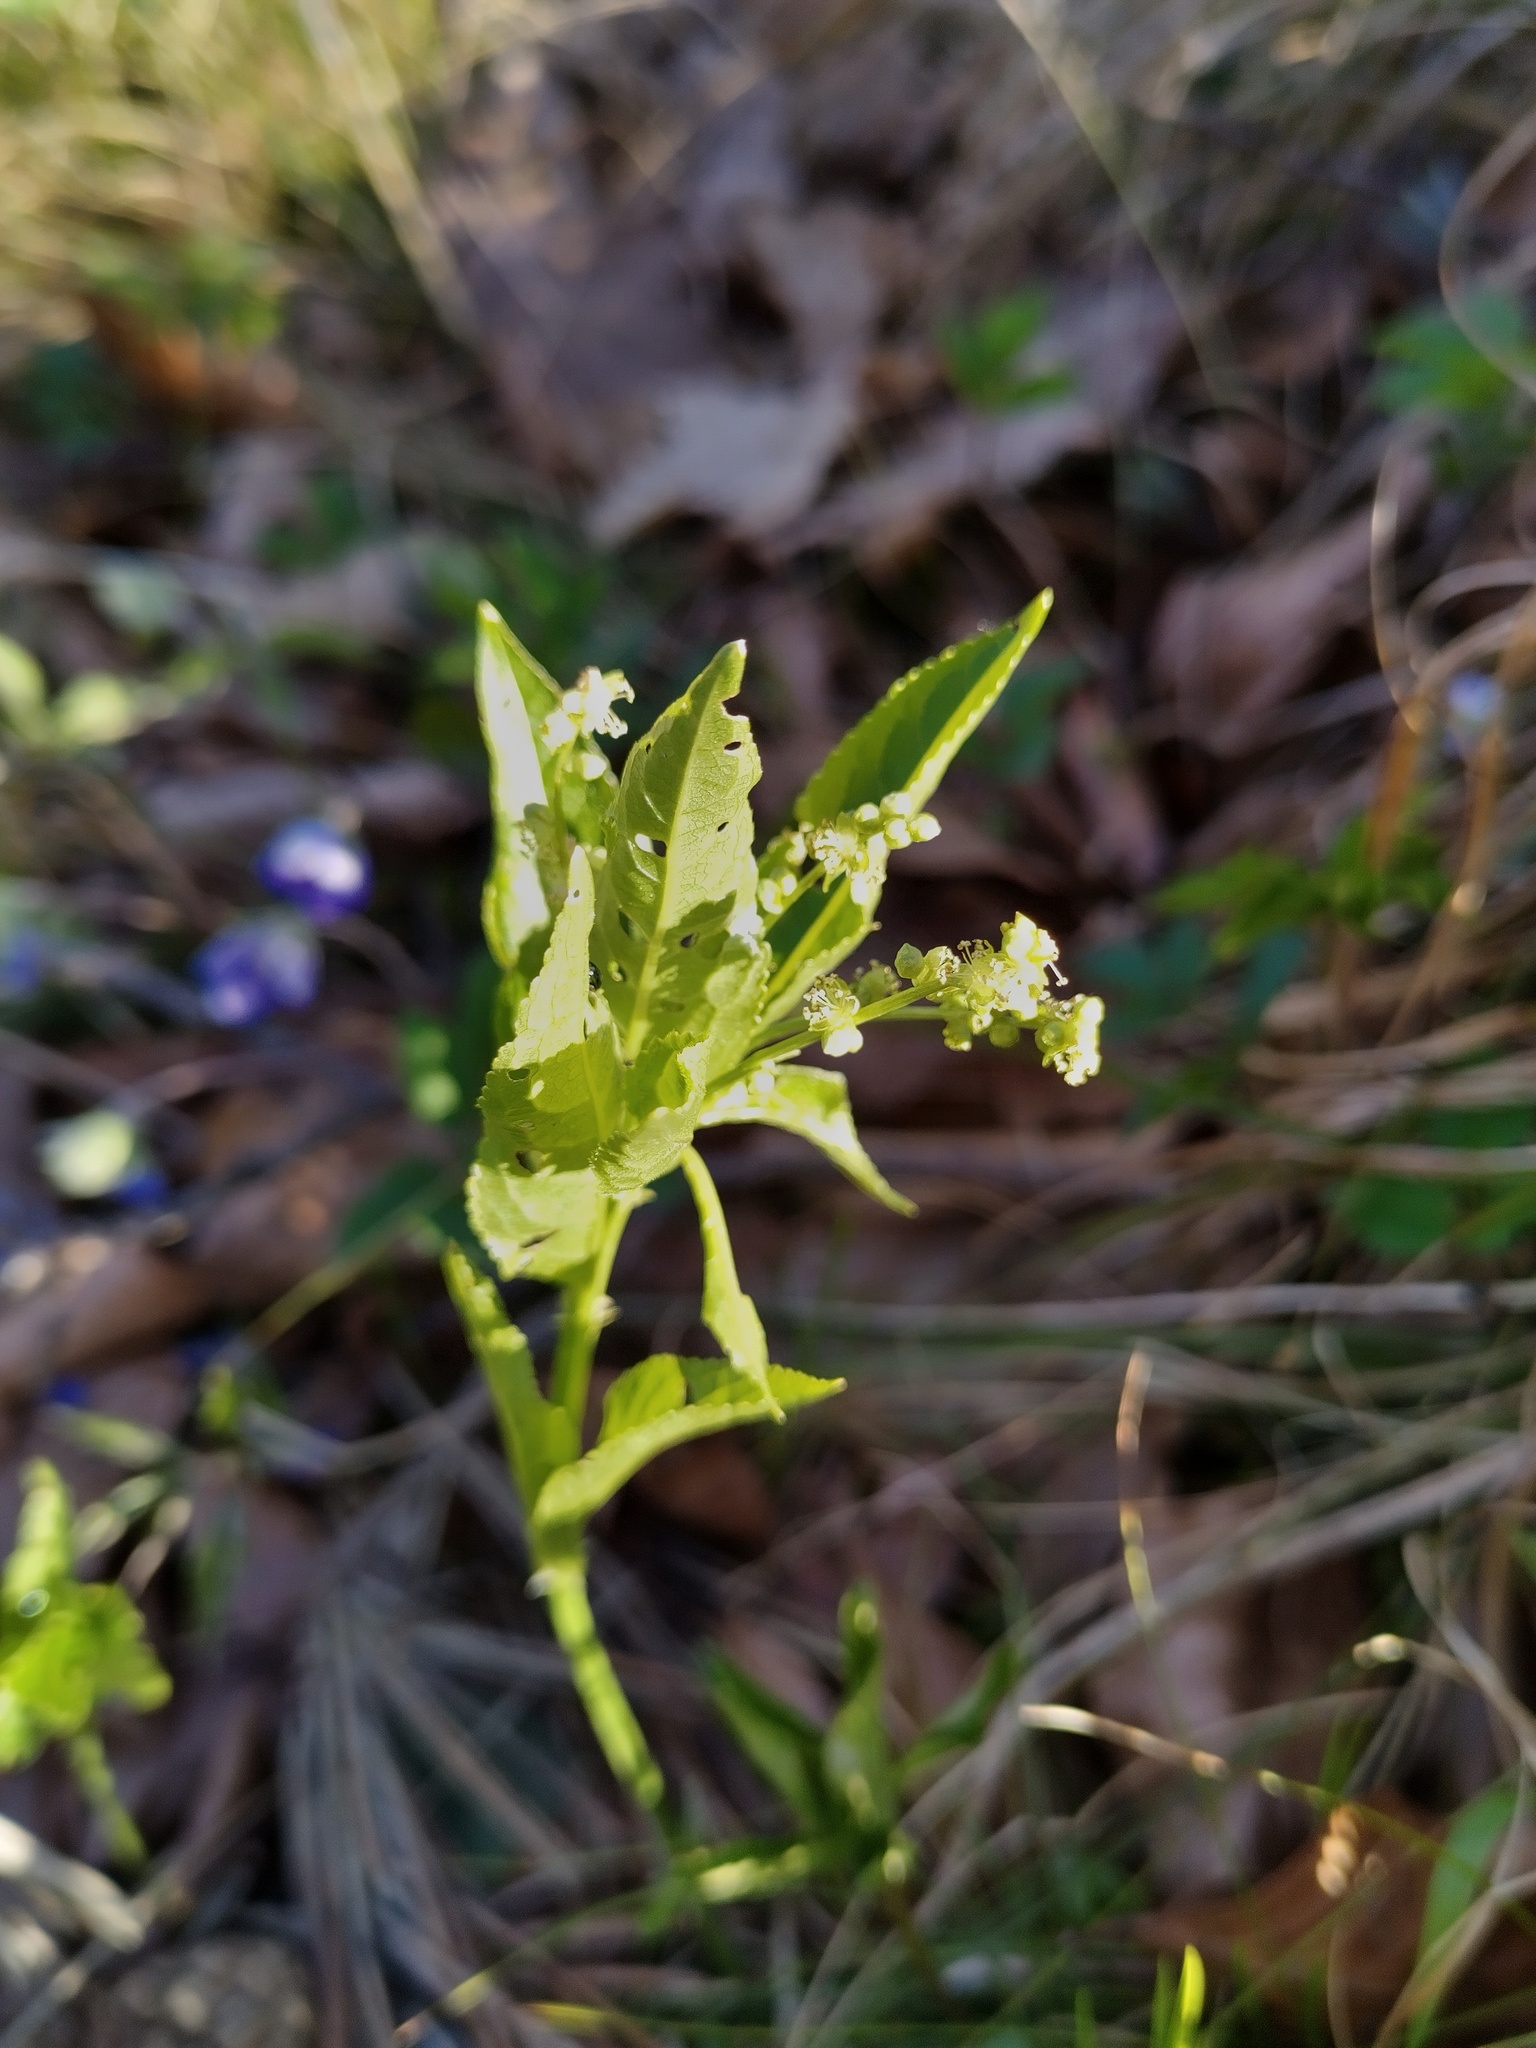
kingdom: Plantae
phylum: Tracheophyta
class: Magnoliopsida
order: Malpighiales
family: Euphorbiaceae
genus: Mercurialis
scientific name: Mercurialis perennis
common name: Dog mercury
